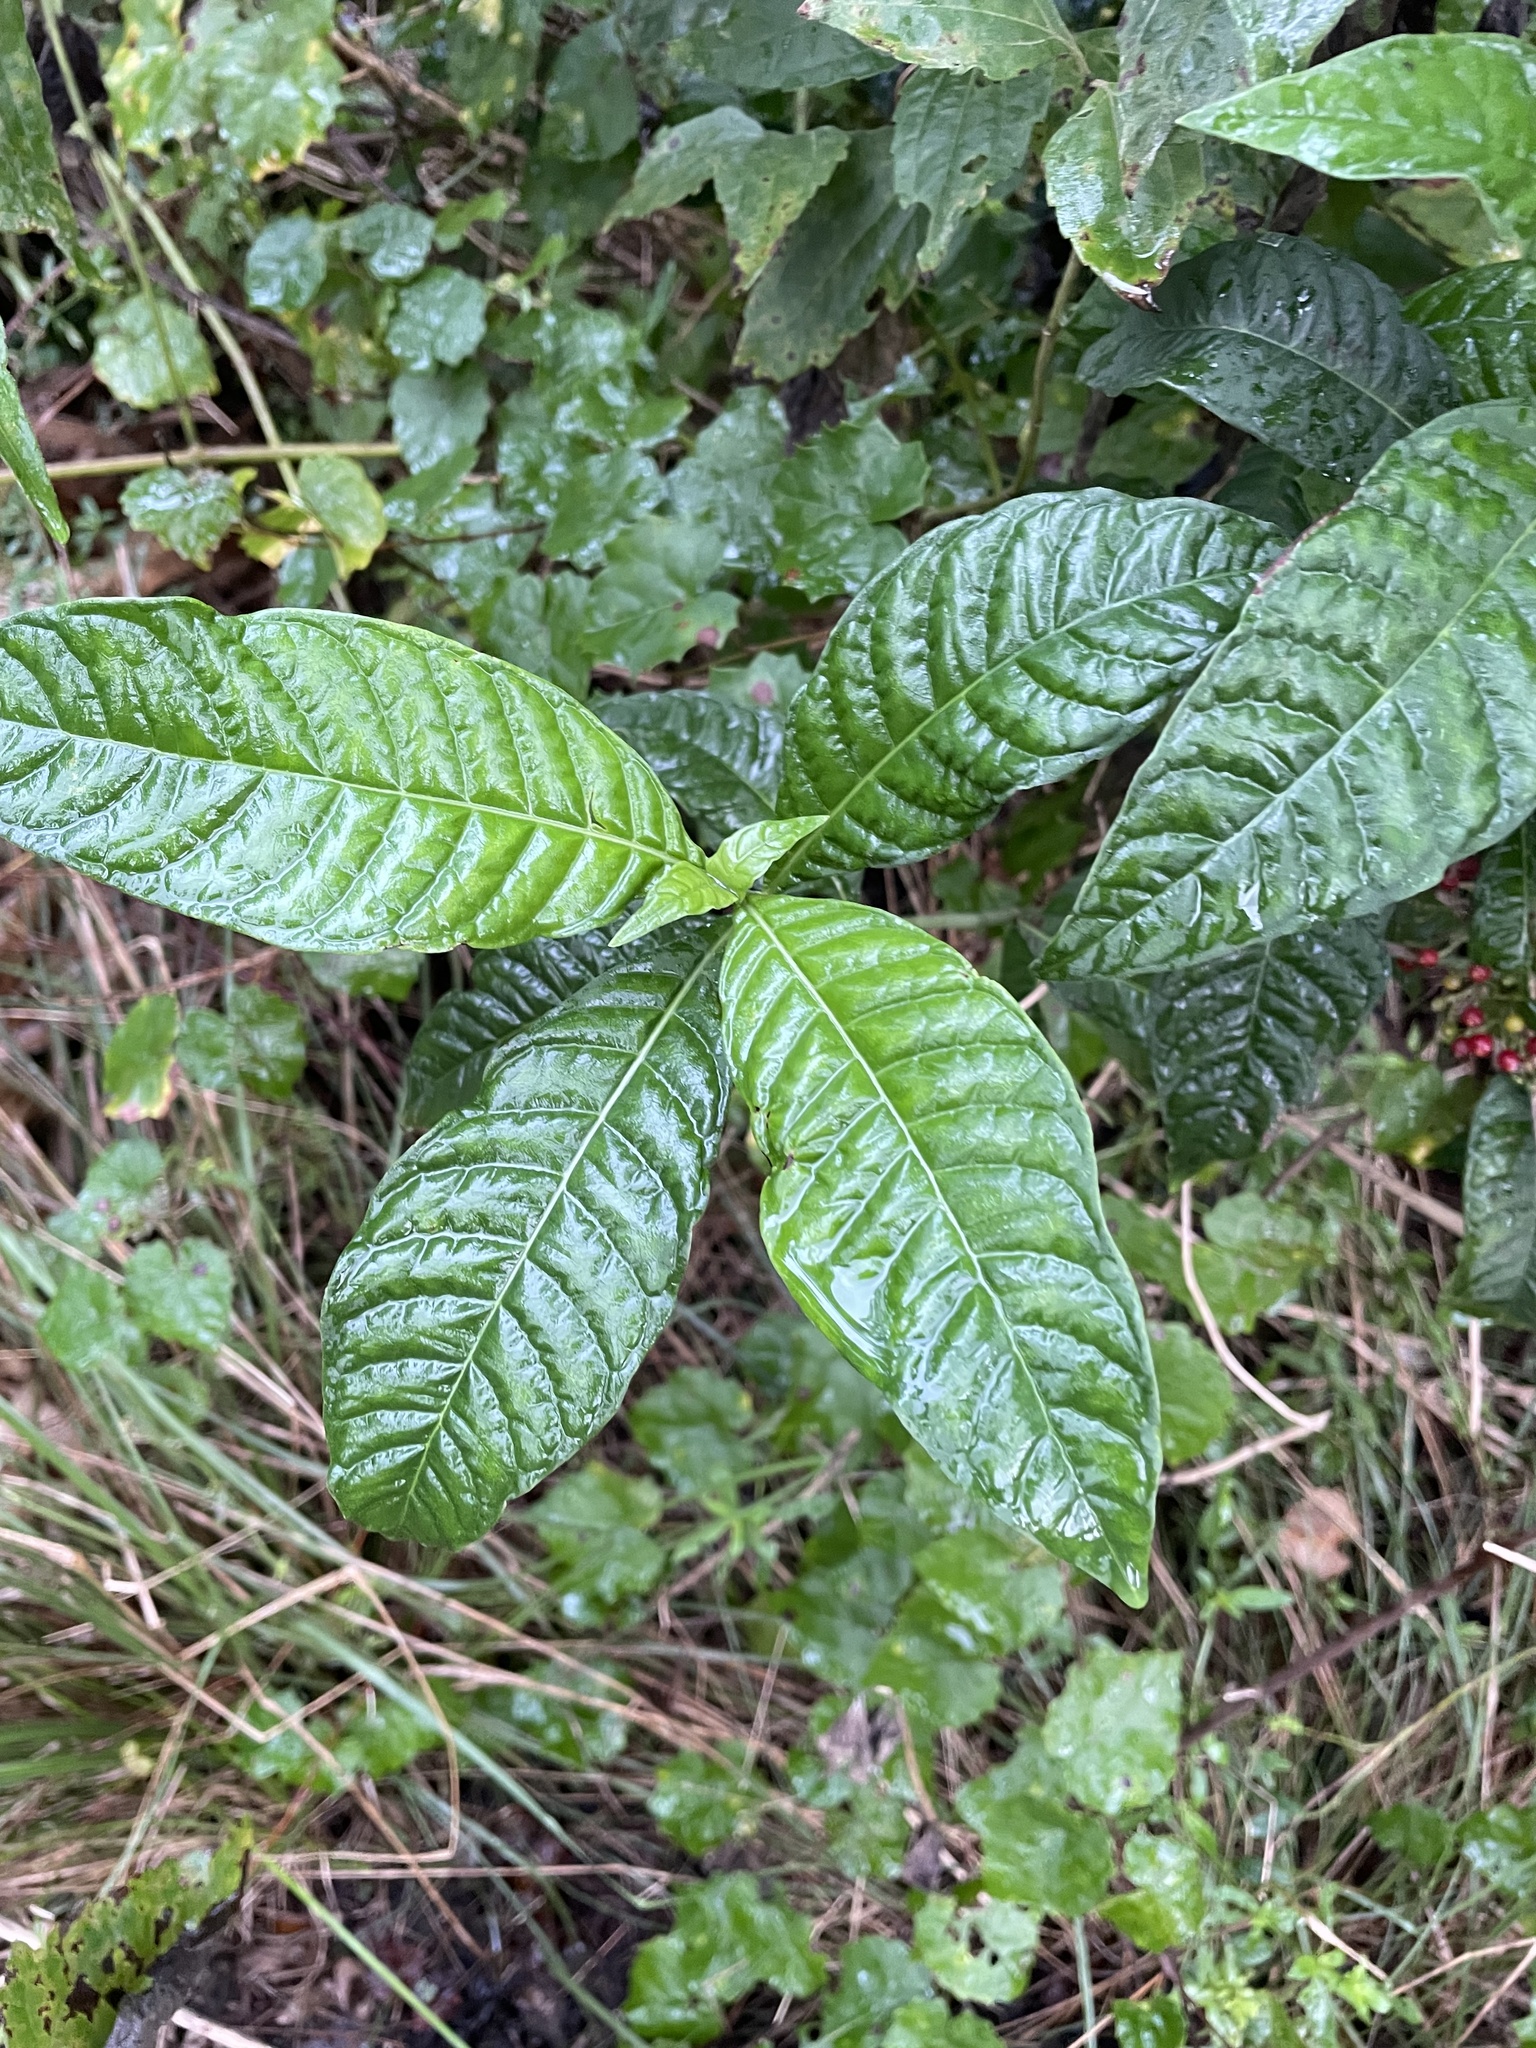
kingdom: Plantae
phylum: Tracheophyta
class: Magnoliopsida
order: Gentianales
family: Rubiaceae
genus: Psychotria
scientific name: Psychotria nervosa
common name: Bastard cankerberry
